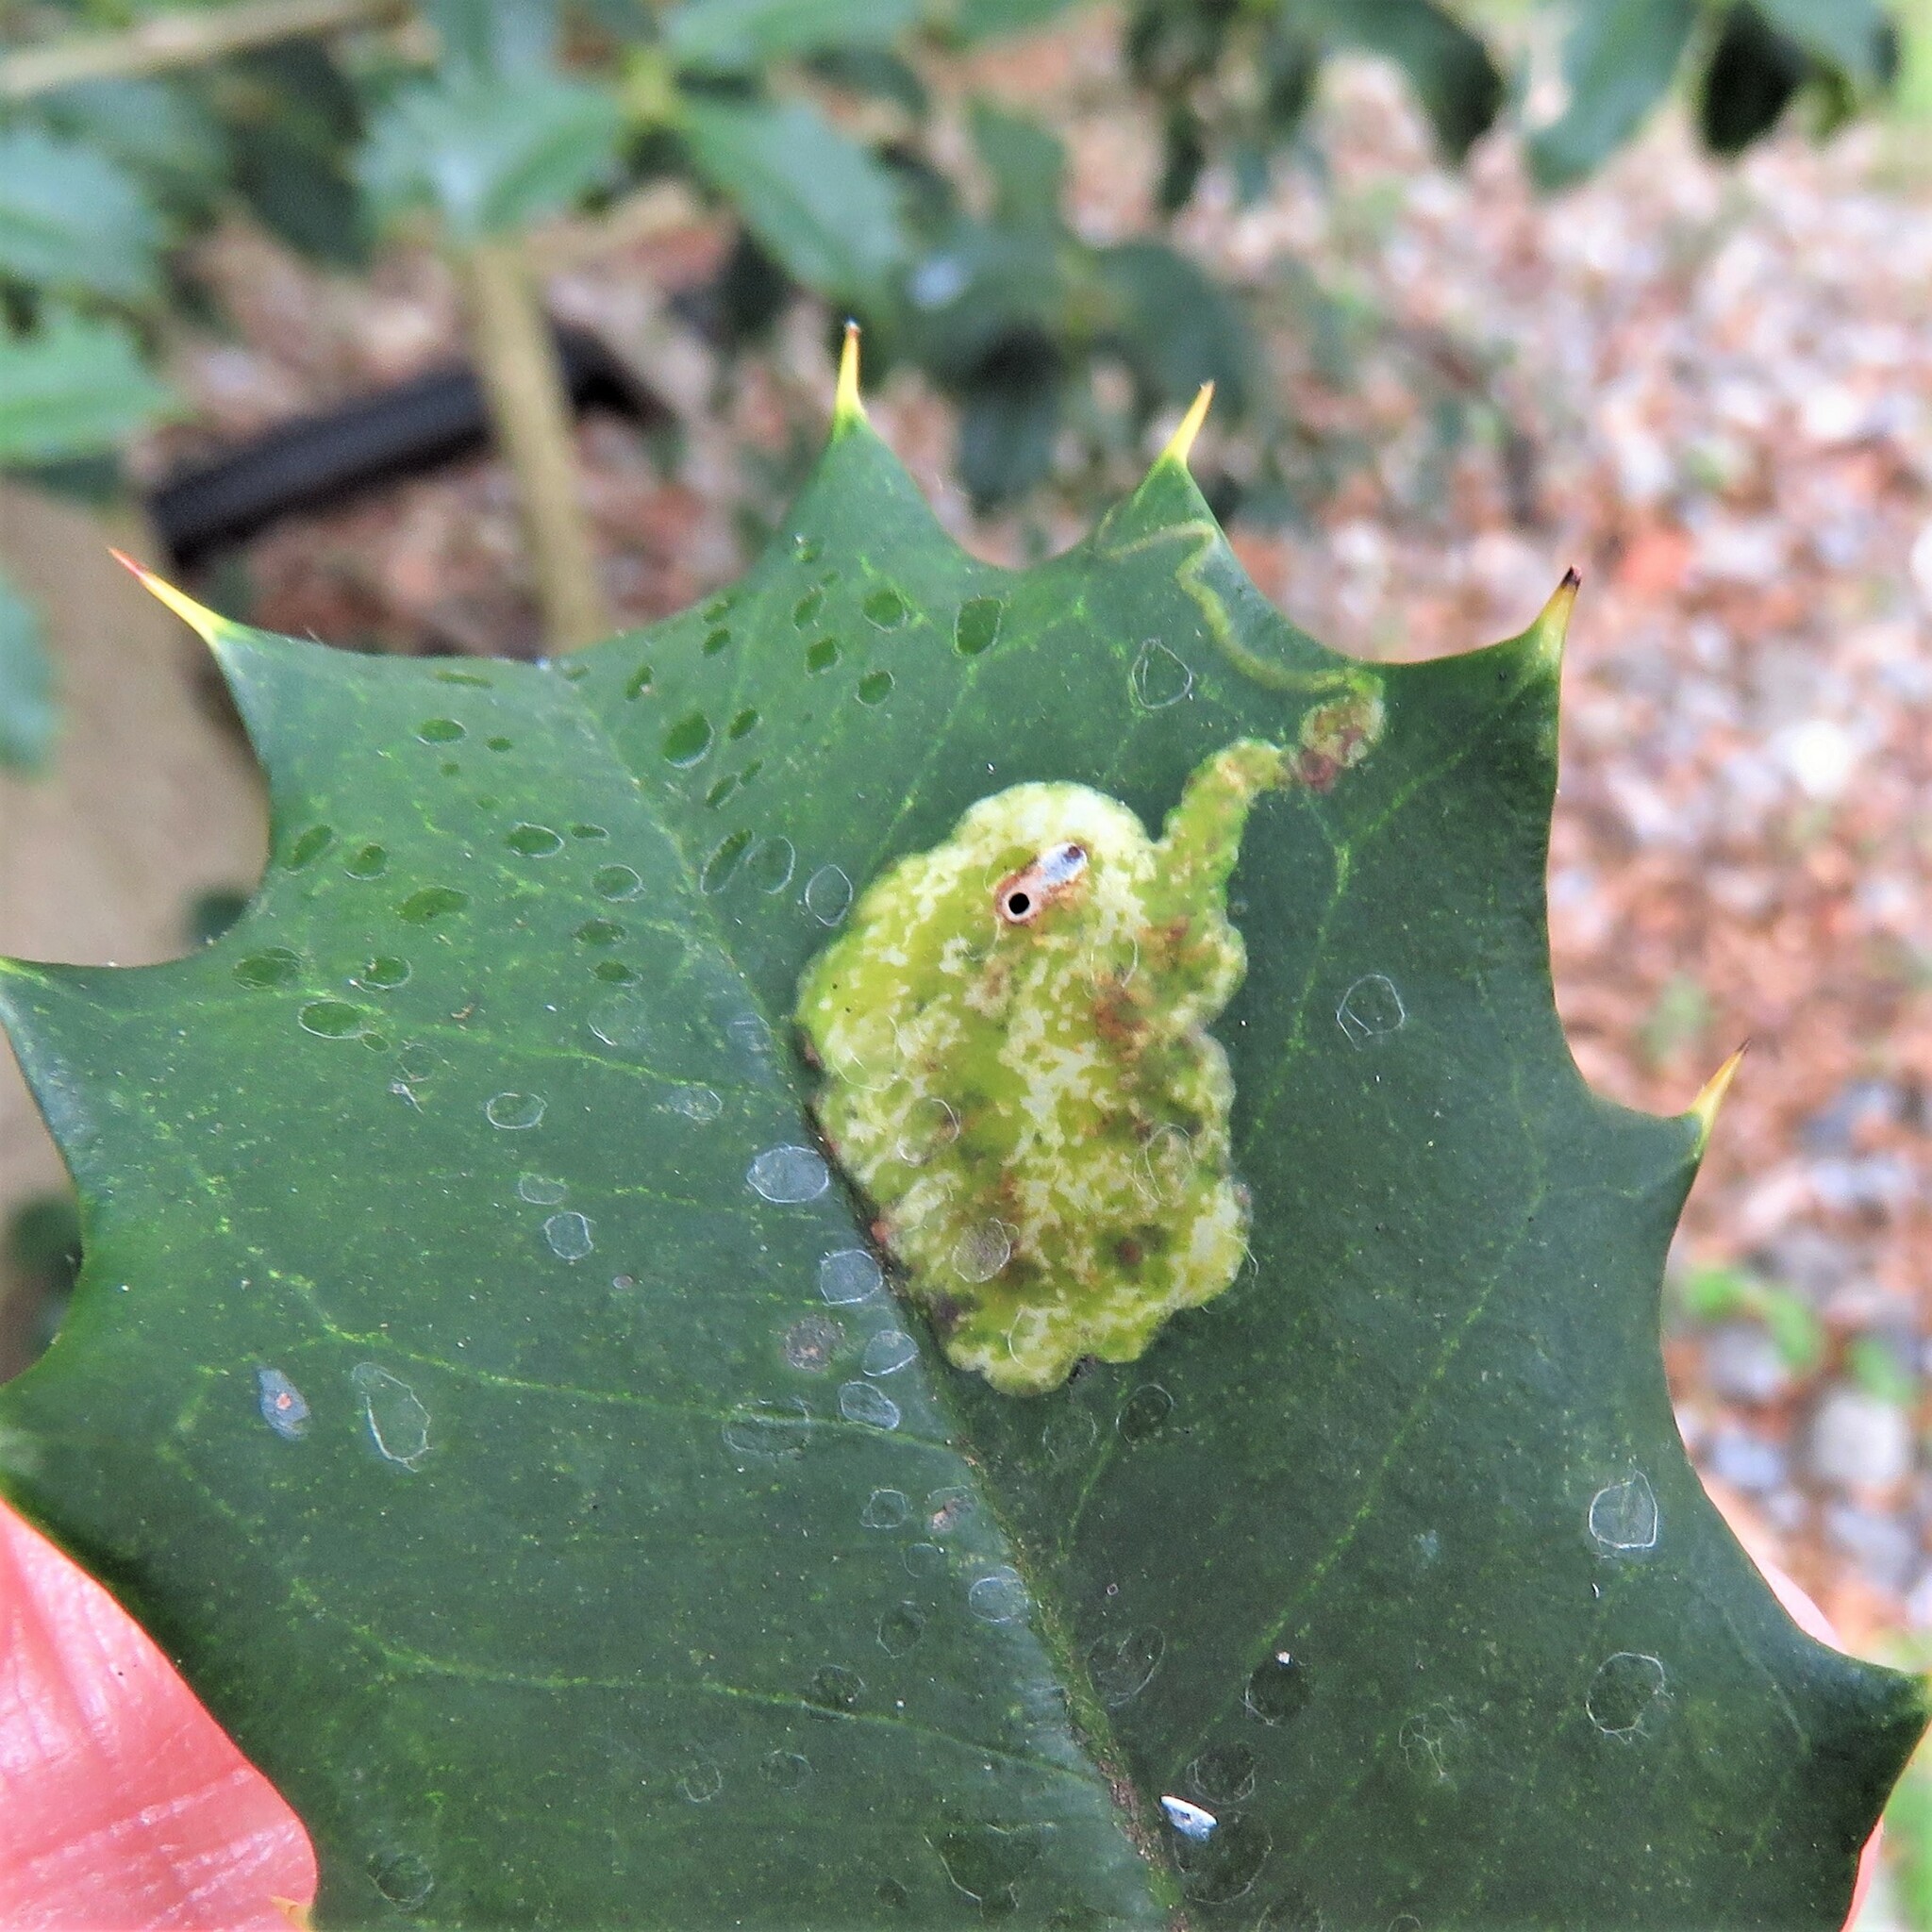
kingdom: Animalia
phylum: Arthropoda
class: Insecta
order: Diptera
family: Agromyzidae
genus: Phytomyza
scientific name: Phytomyza ilicicola
